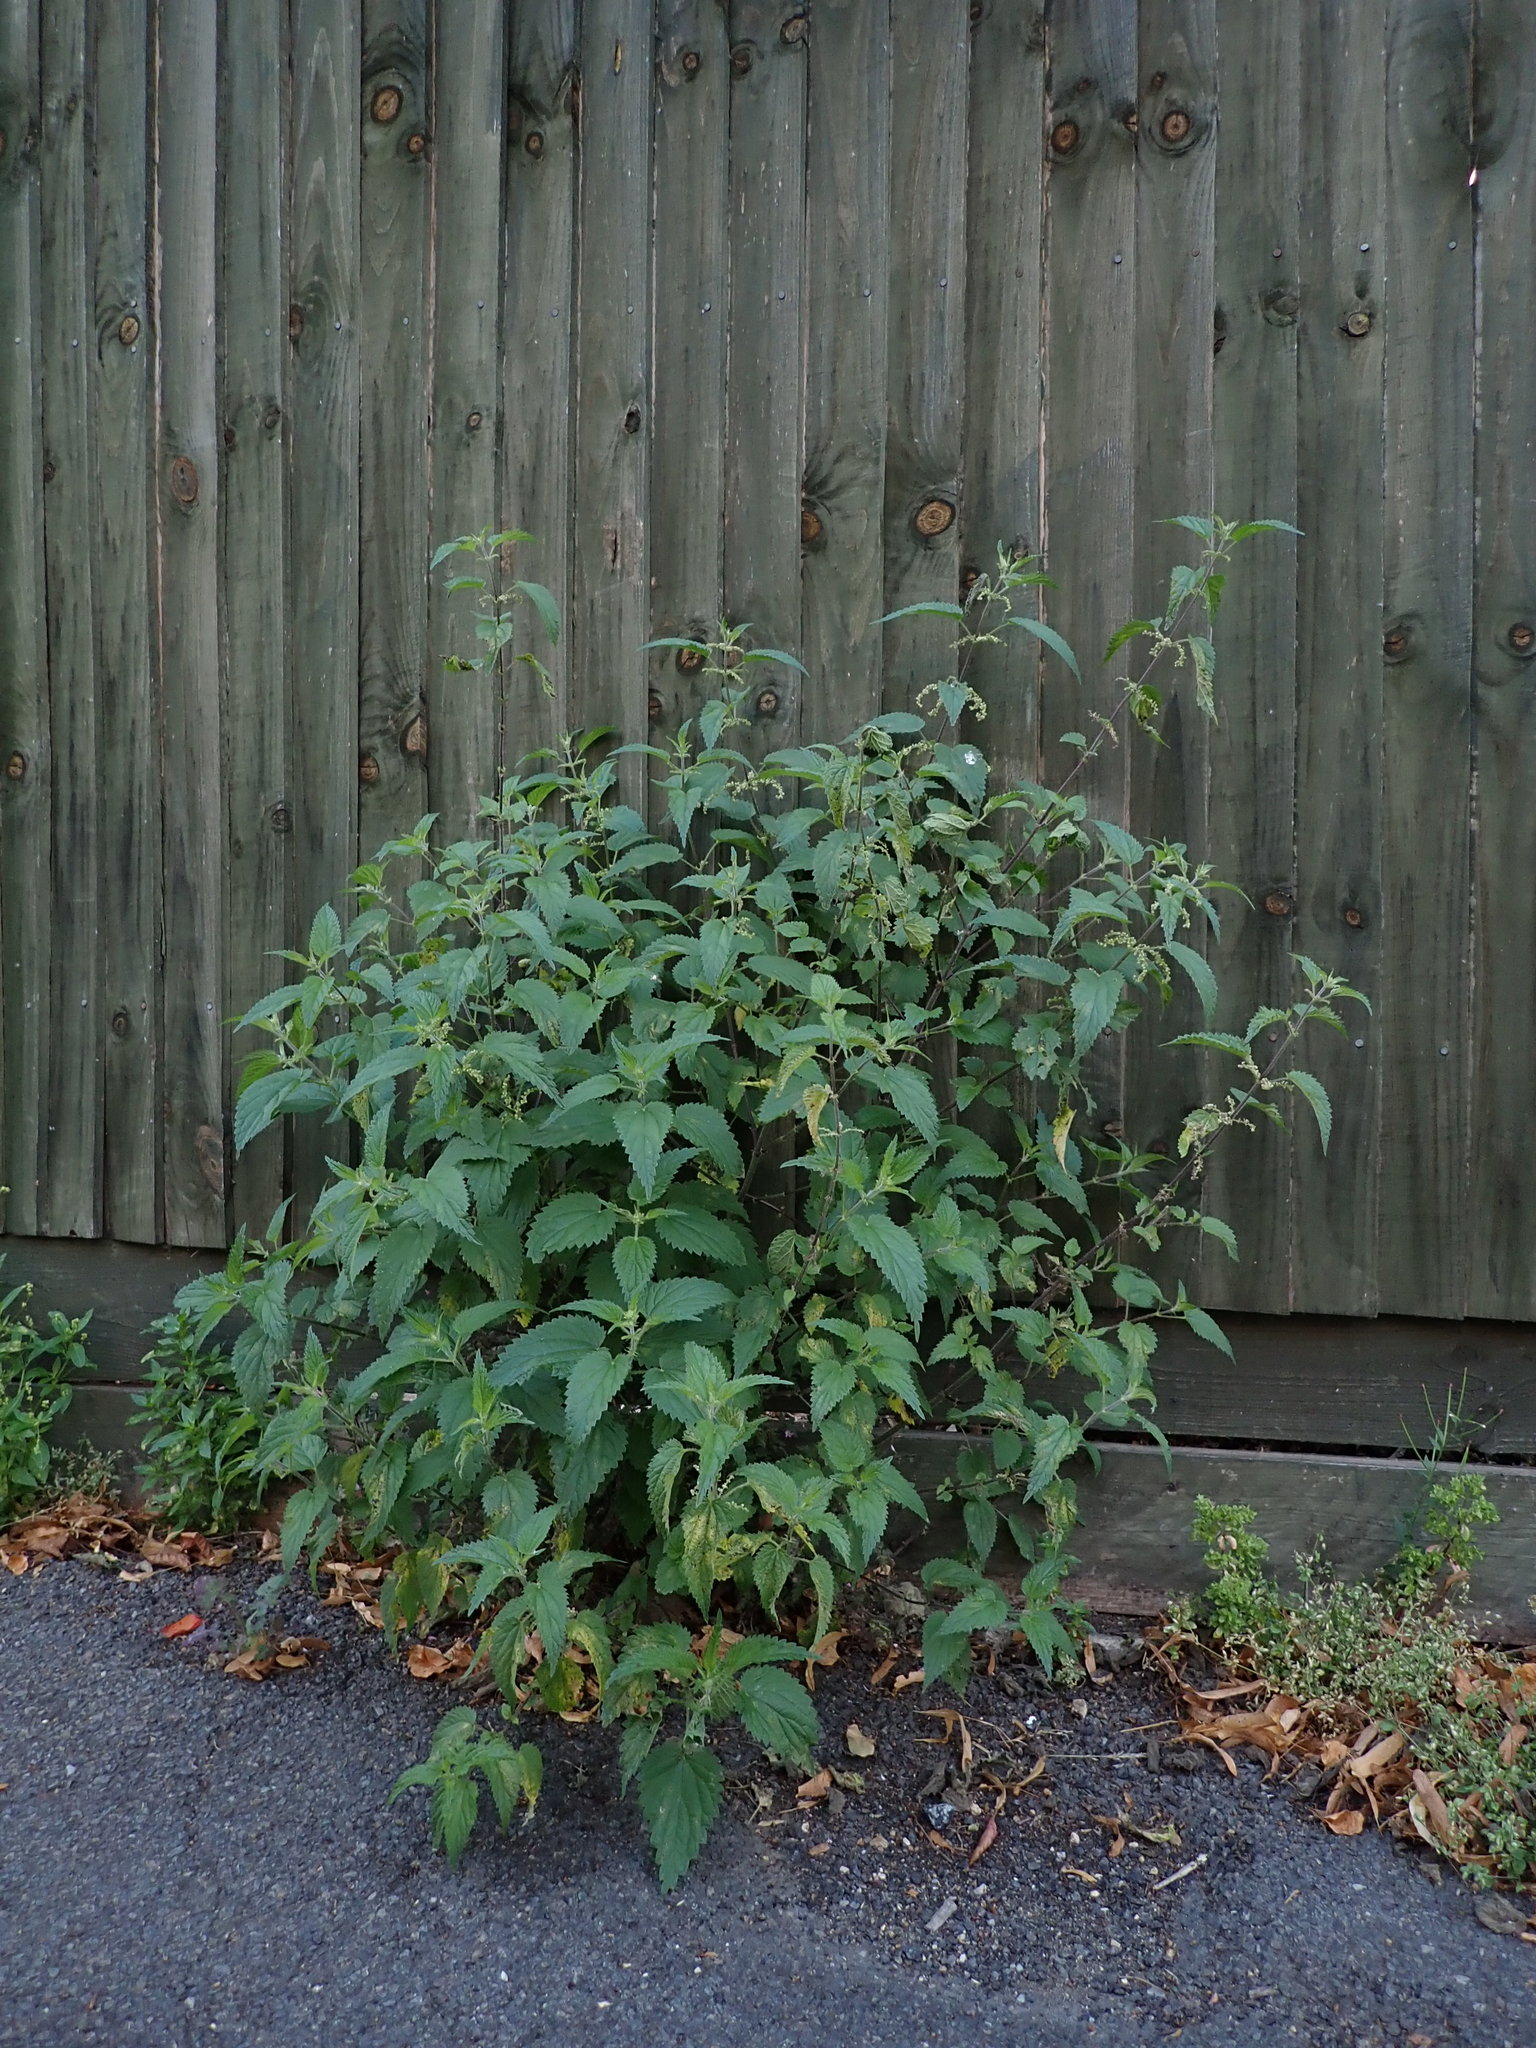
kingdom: Plantae
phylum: Tracheophyta
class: Magnoliopsida
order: Rosales
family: Urticaceae
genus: Urtica
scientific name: Urtica dioica
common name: Common nettle
